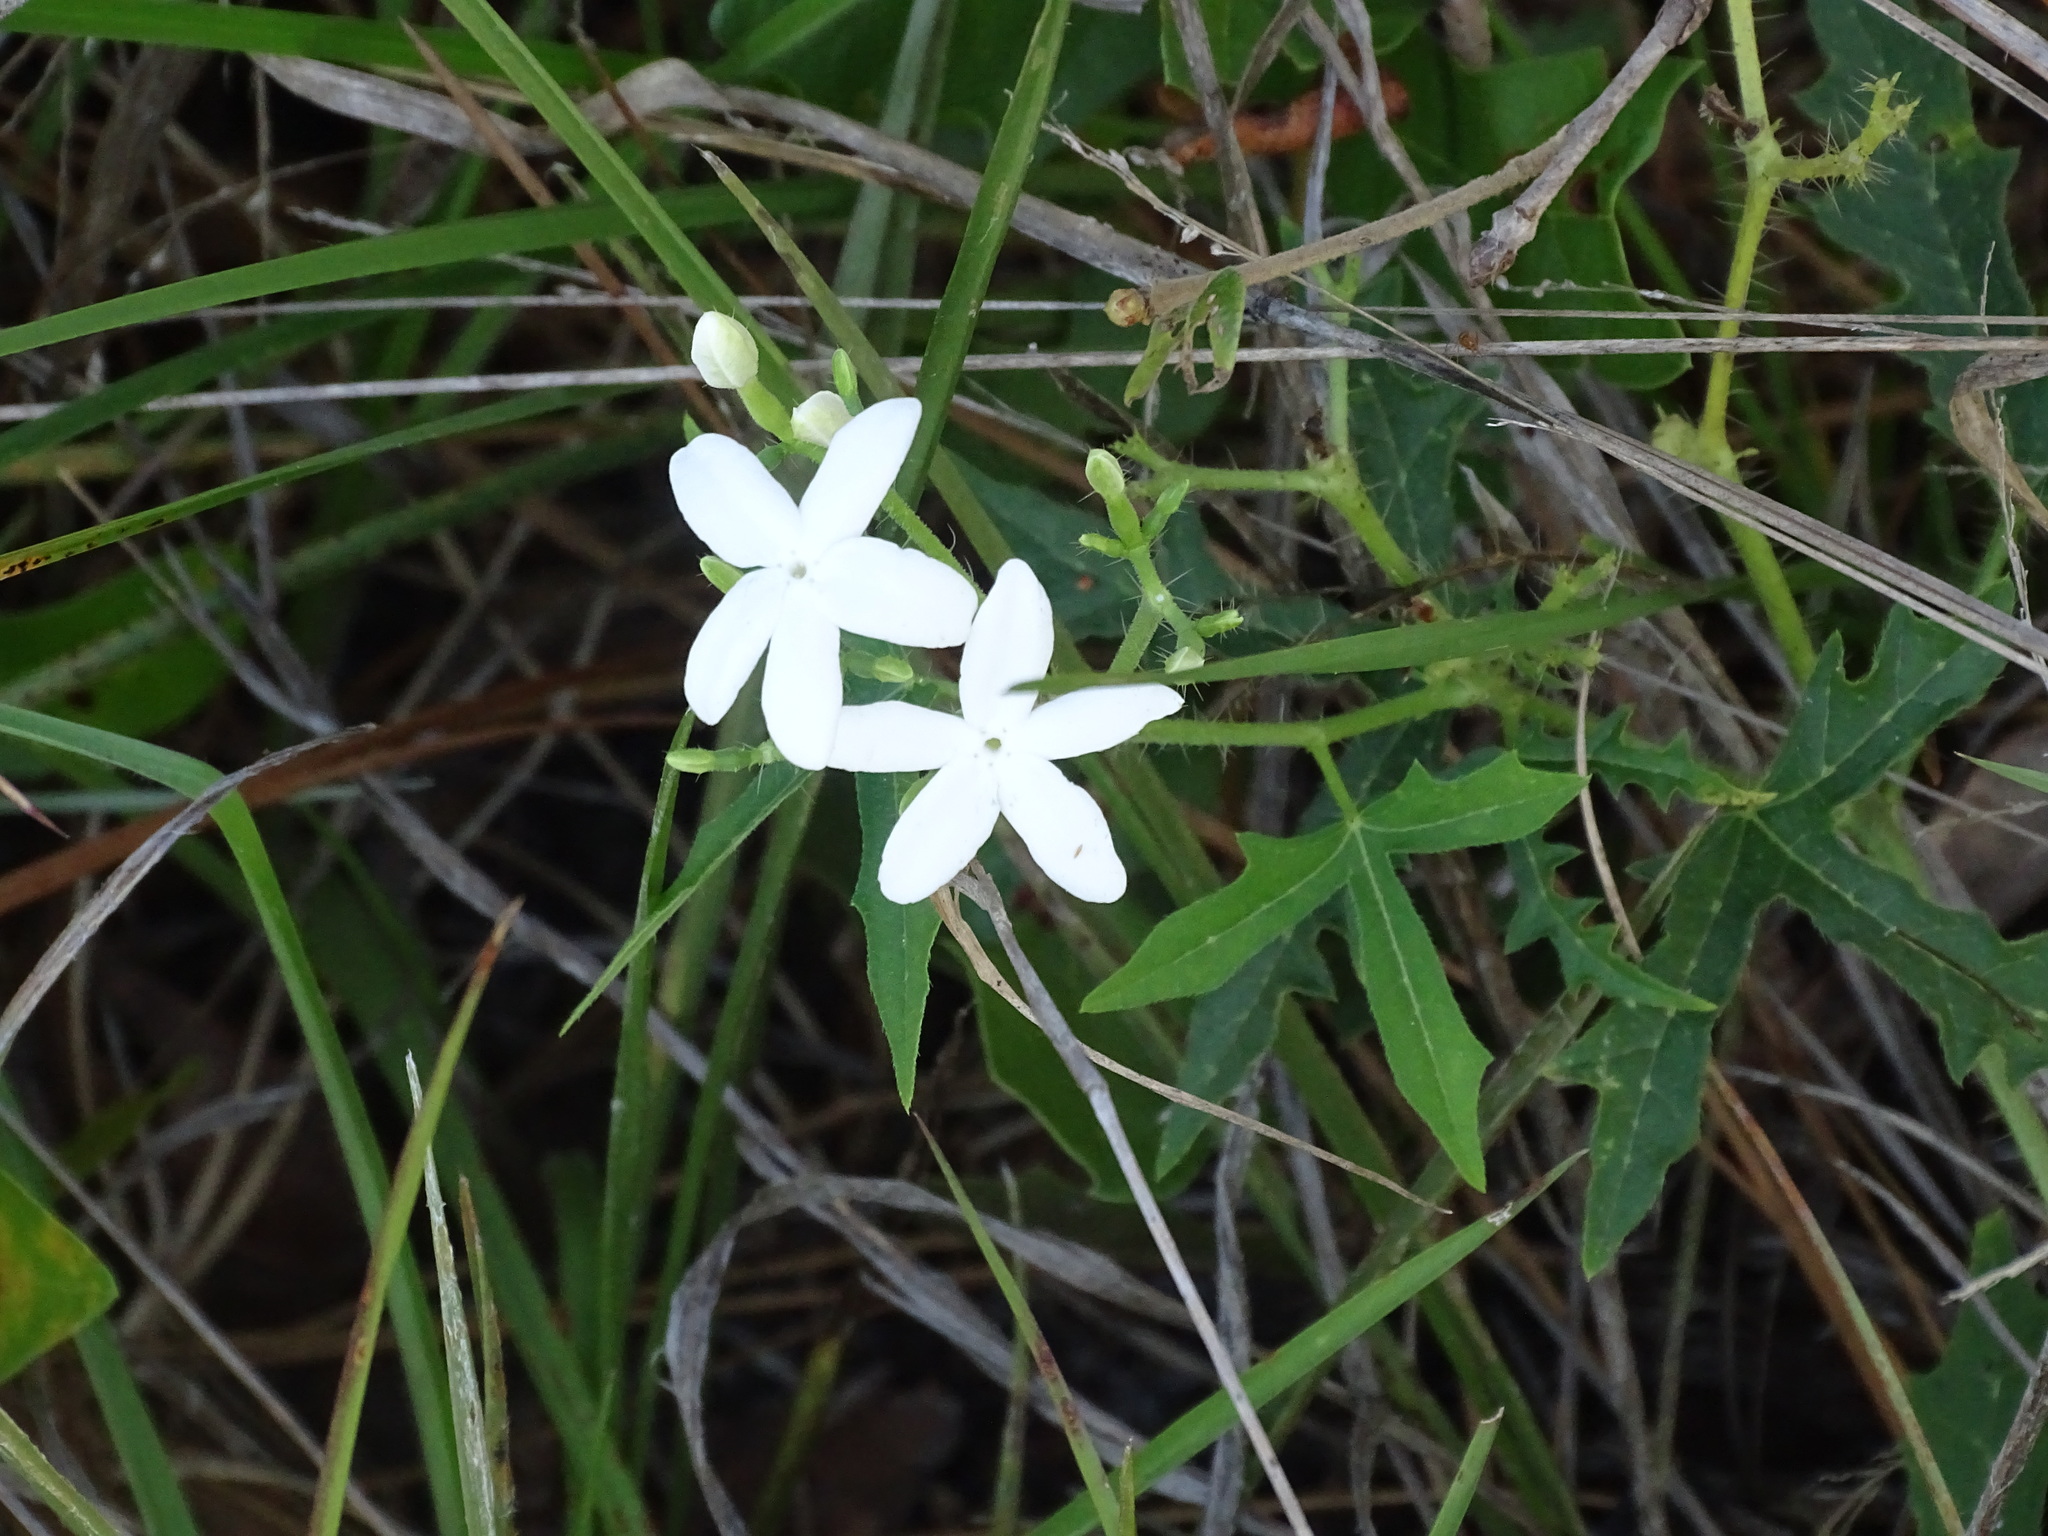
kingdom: Plantae
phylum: Tracheophyta
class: Magnoliopsida
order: Malpighiales
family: Euphorbiaceae
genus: Cnidoscolus
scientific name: Cnidoscolus stimulosus
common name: Bull-nettle
